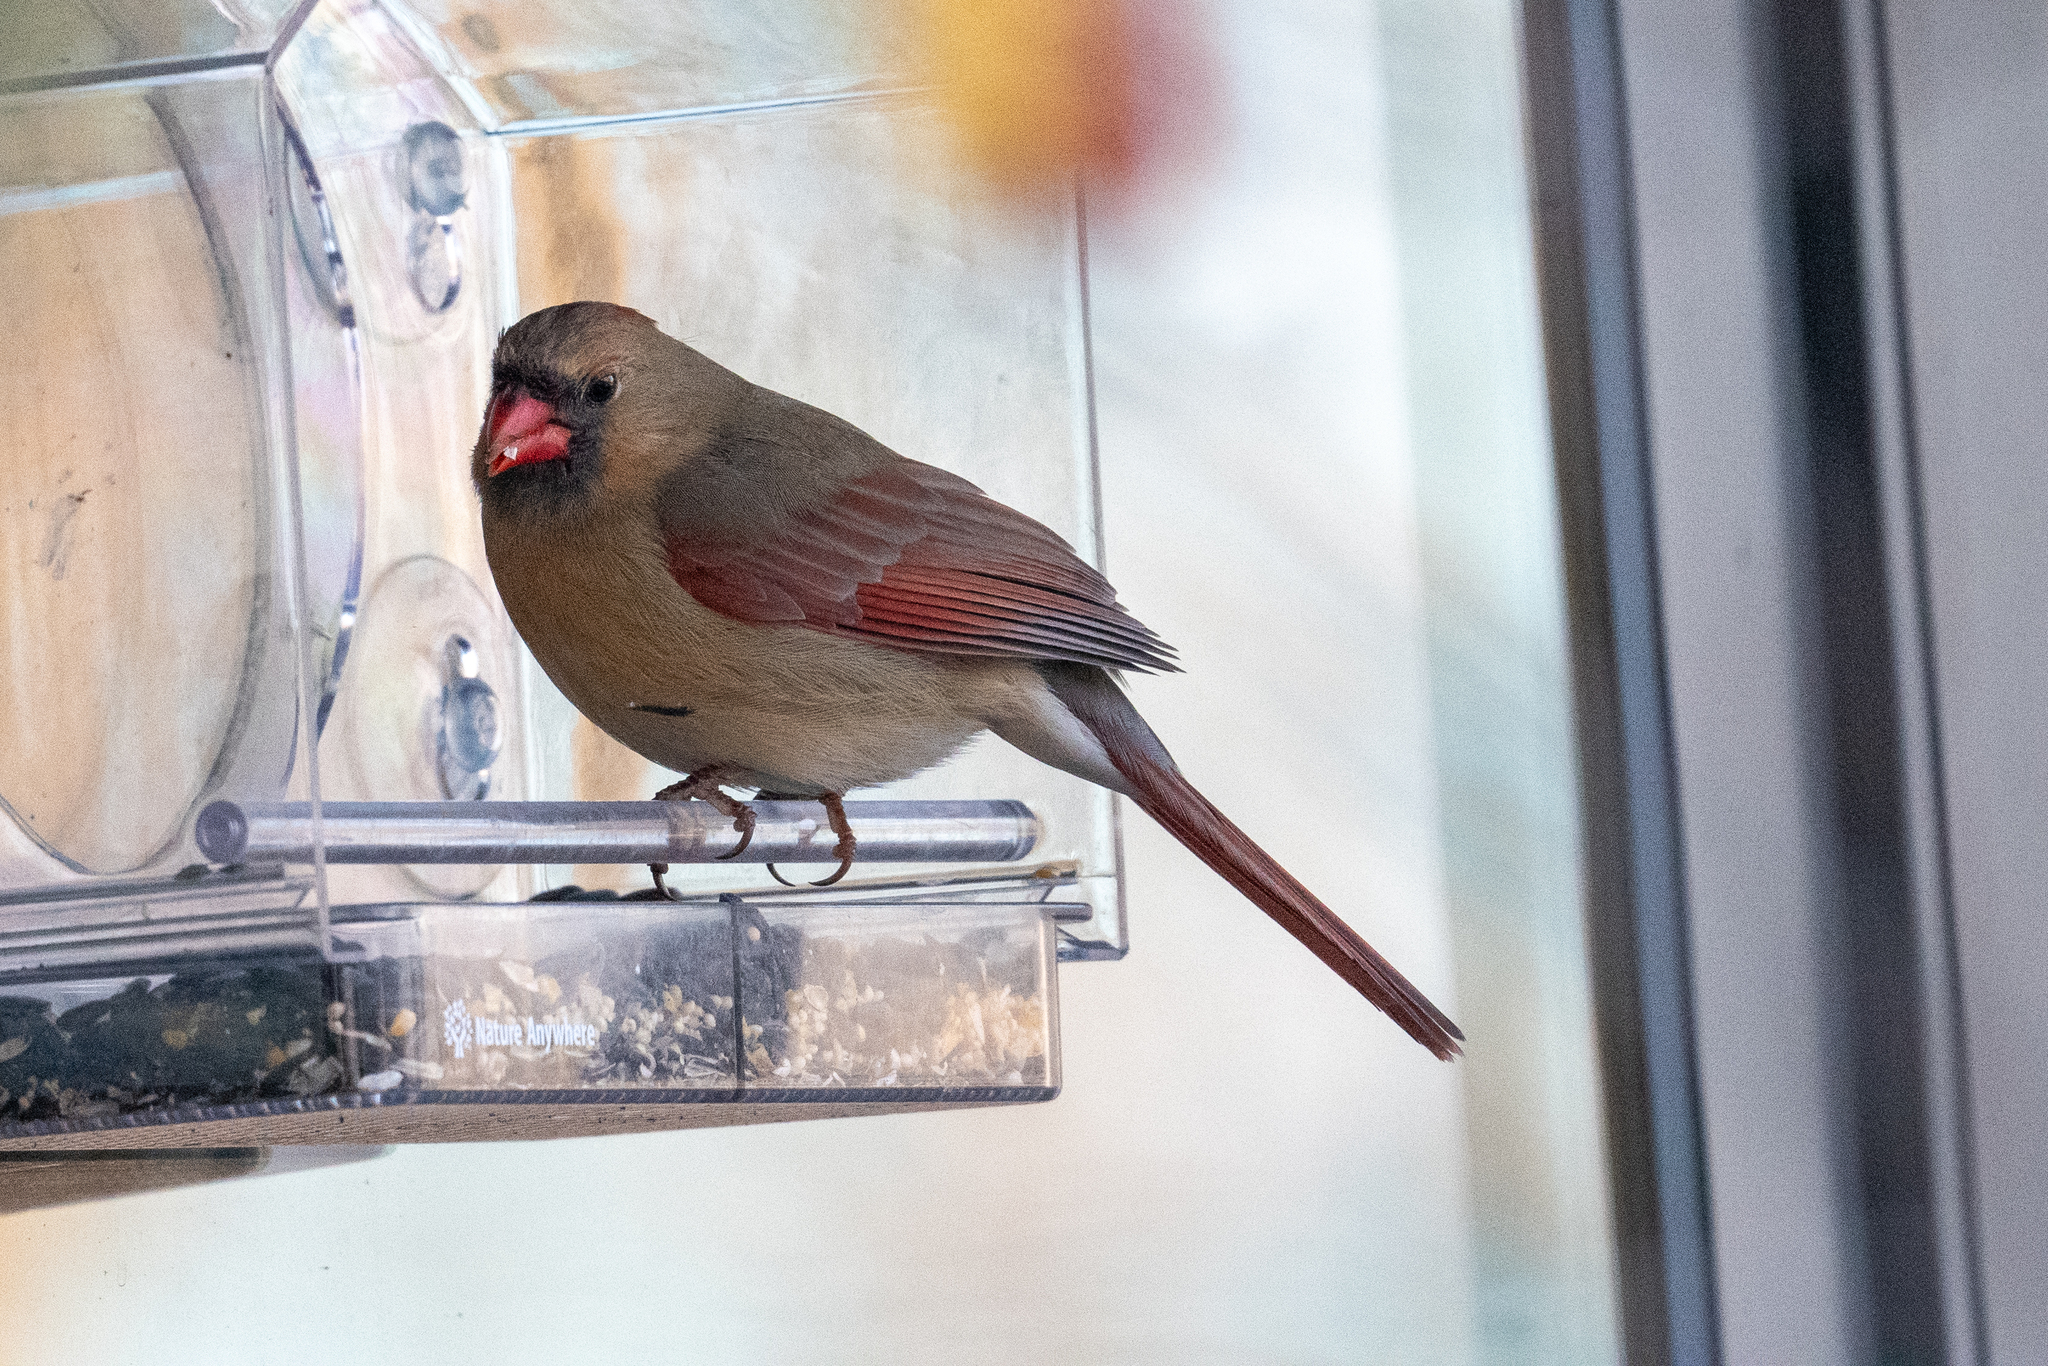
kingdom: Animalia
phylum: Chordata
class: Aves
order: Passeriformes
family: Cardinalidae
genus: Cardinalis
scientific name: Cardinalis cardinalis
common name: Northern cardinal
